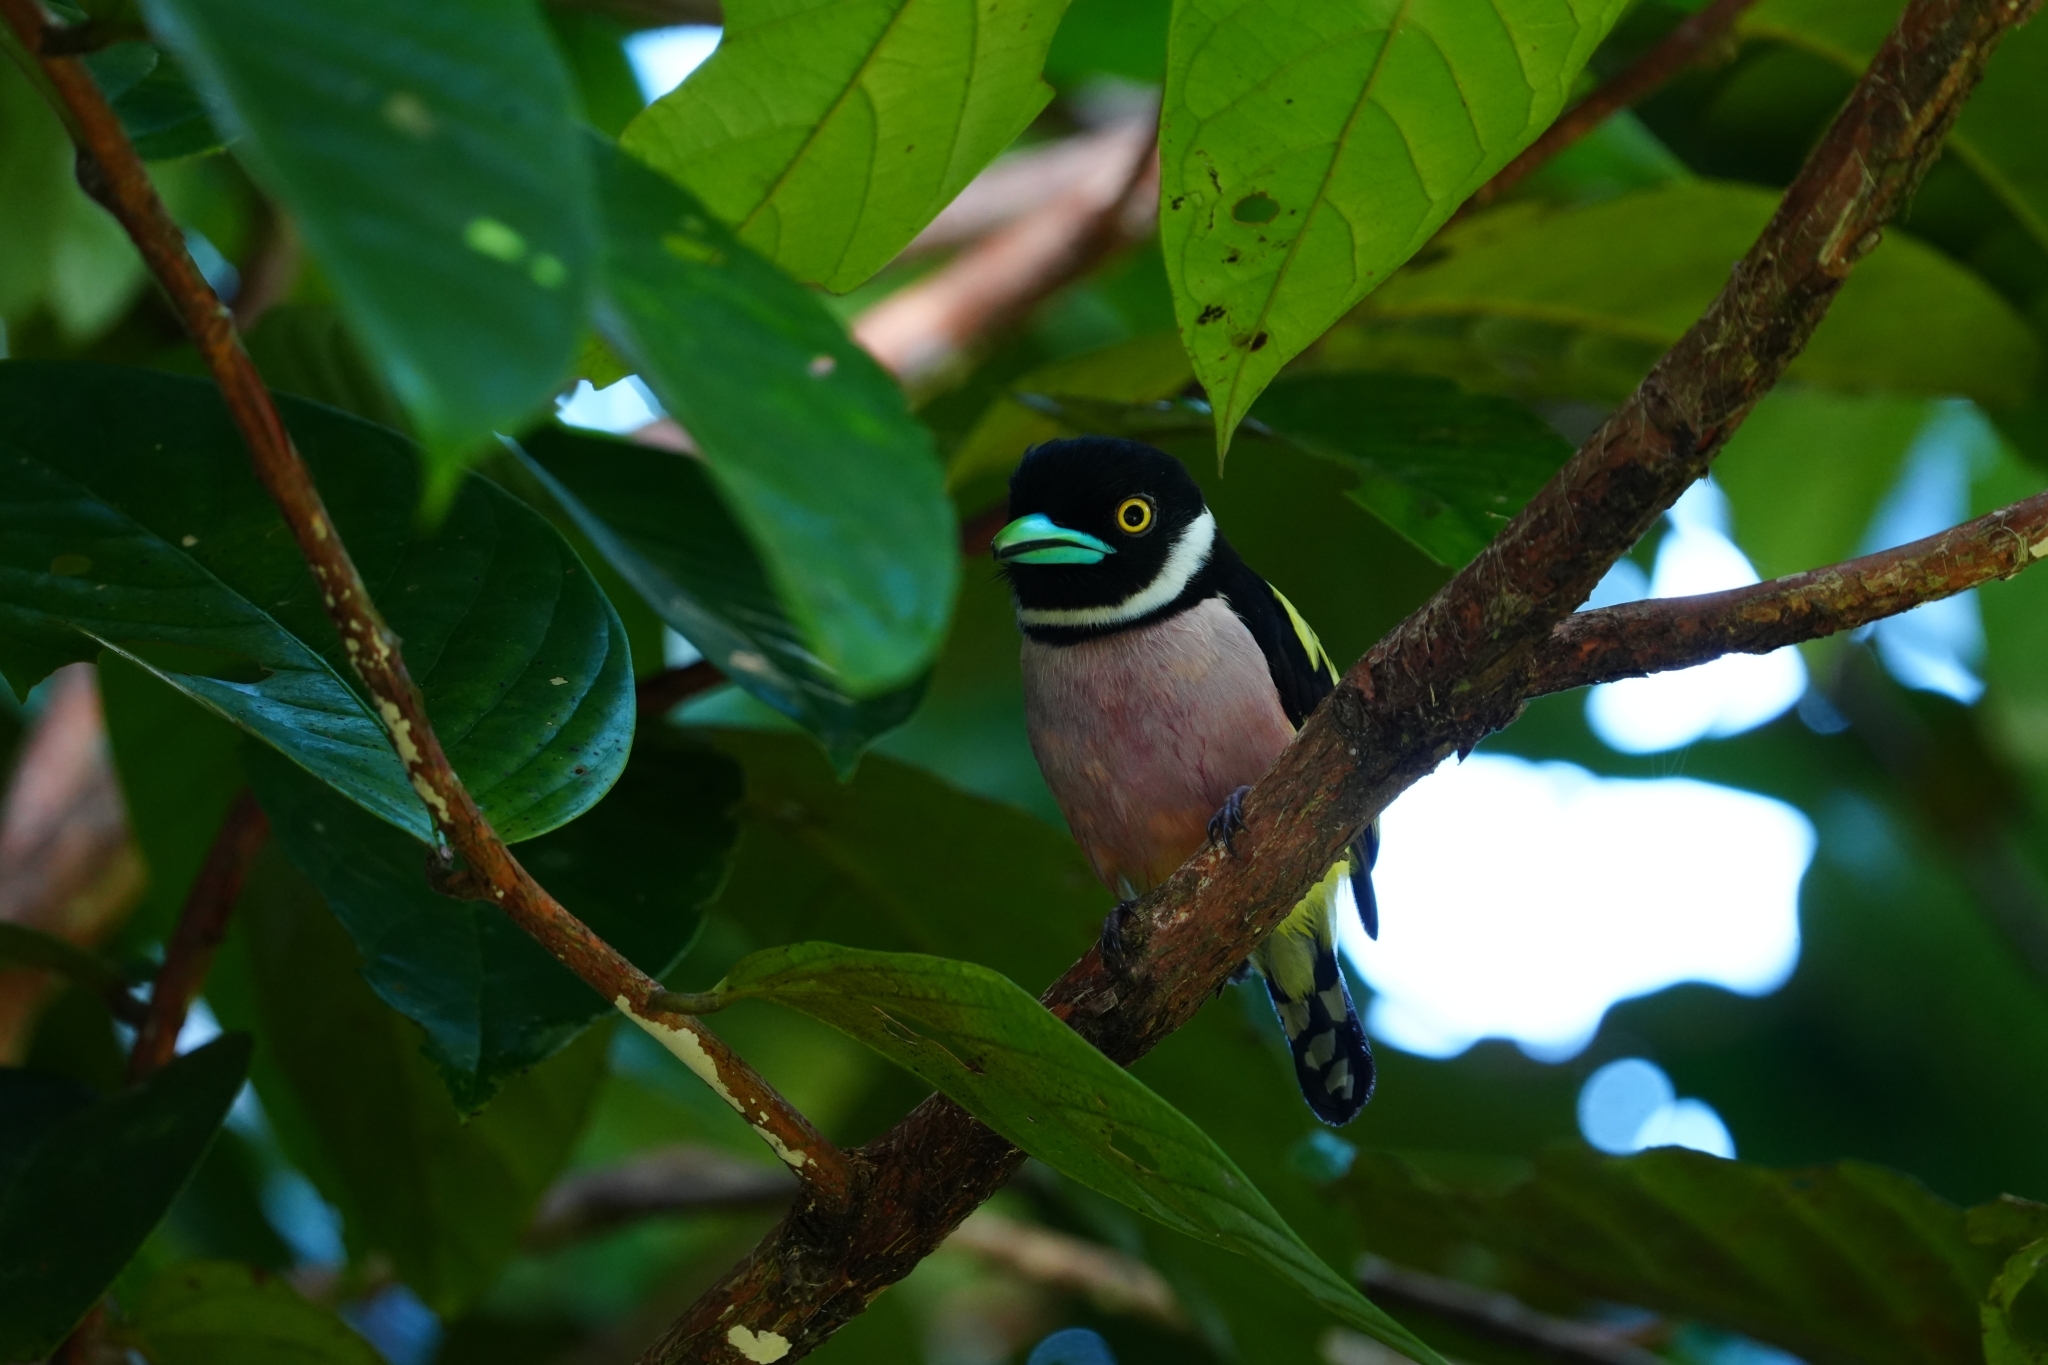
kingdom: Animalia
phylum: Chordata
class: Aves
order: Passeriformes
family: Eurylaimidae
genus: Eurylaimus
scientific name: Eurylaimus ochromalus
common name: Black-and-yellow broadbill
